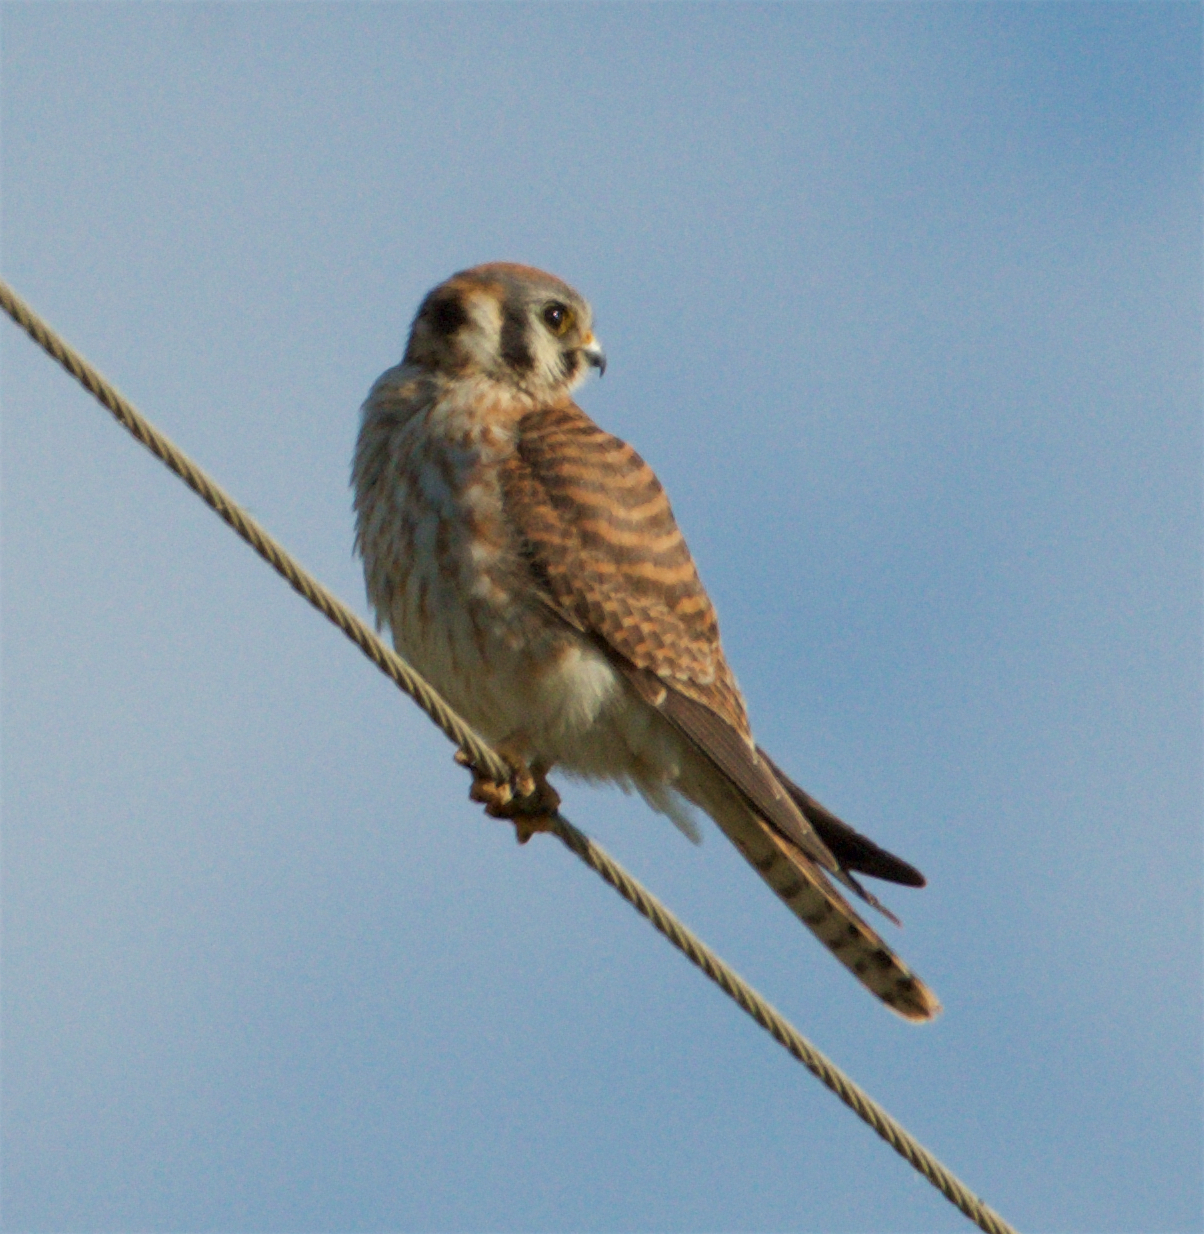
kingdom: Animalia
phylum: Chordata
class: Aves
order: Falconiformes
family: Falconidae
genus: Falco
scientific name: Falco sparverius
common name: American kestrel
